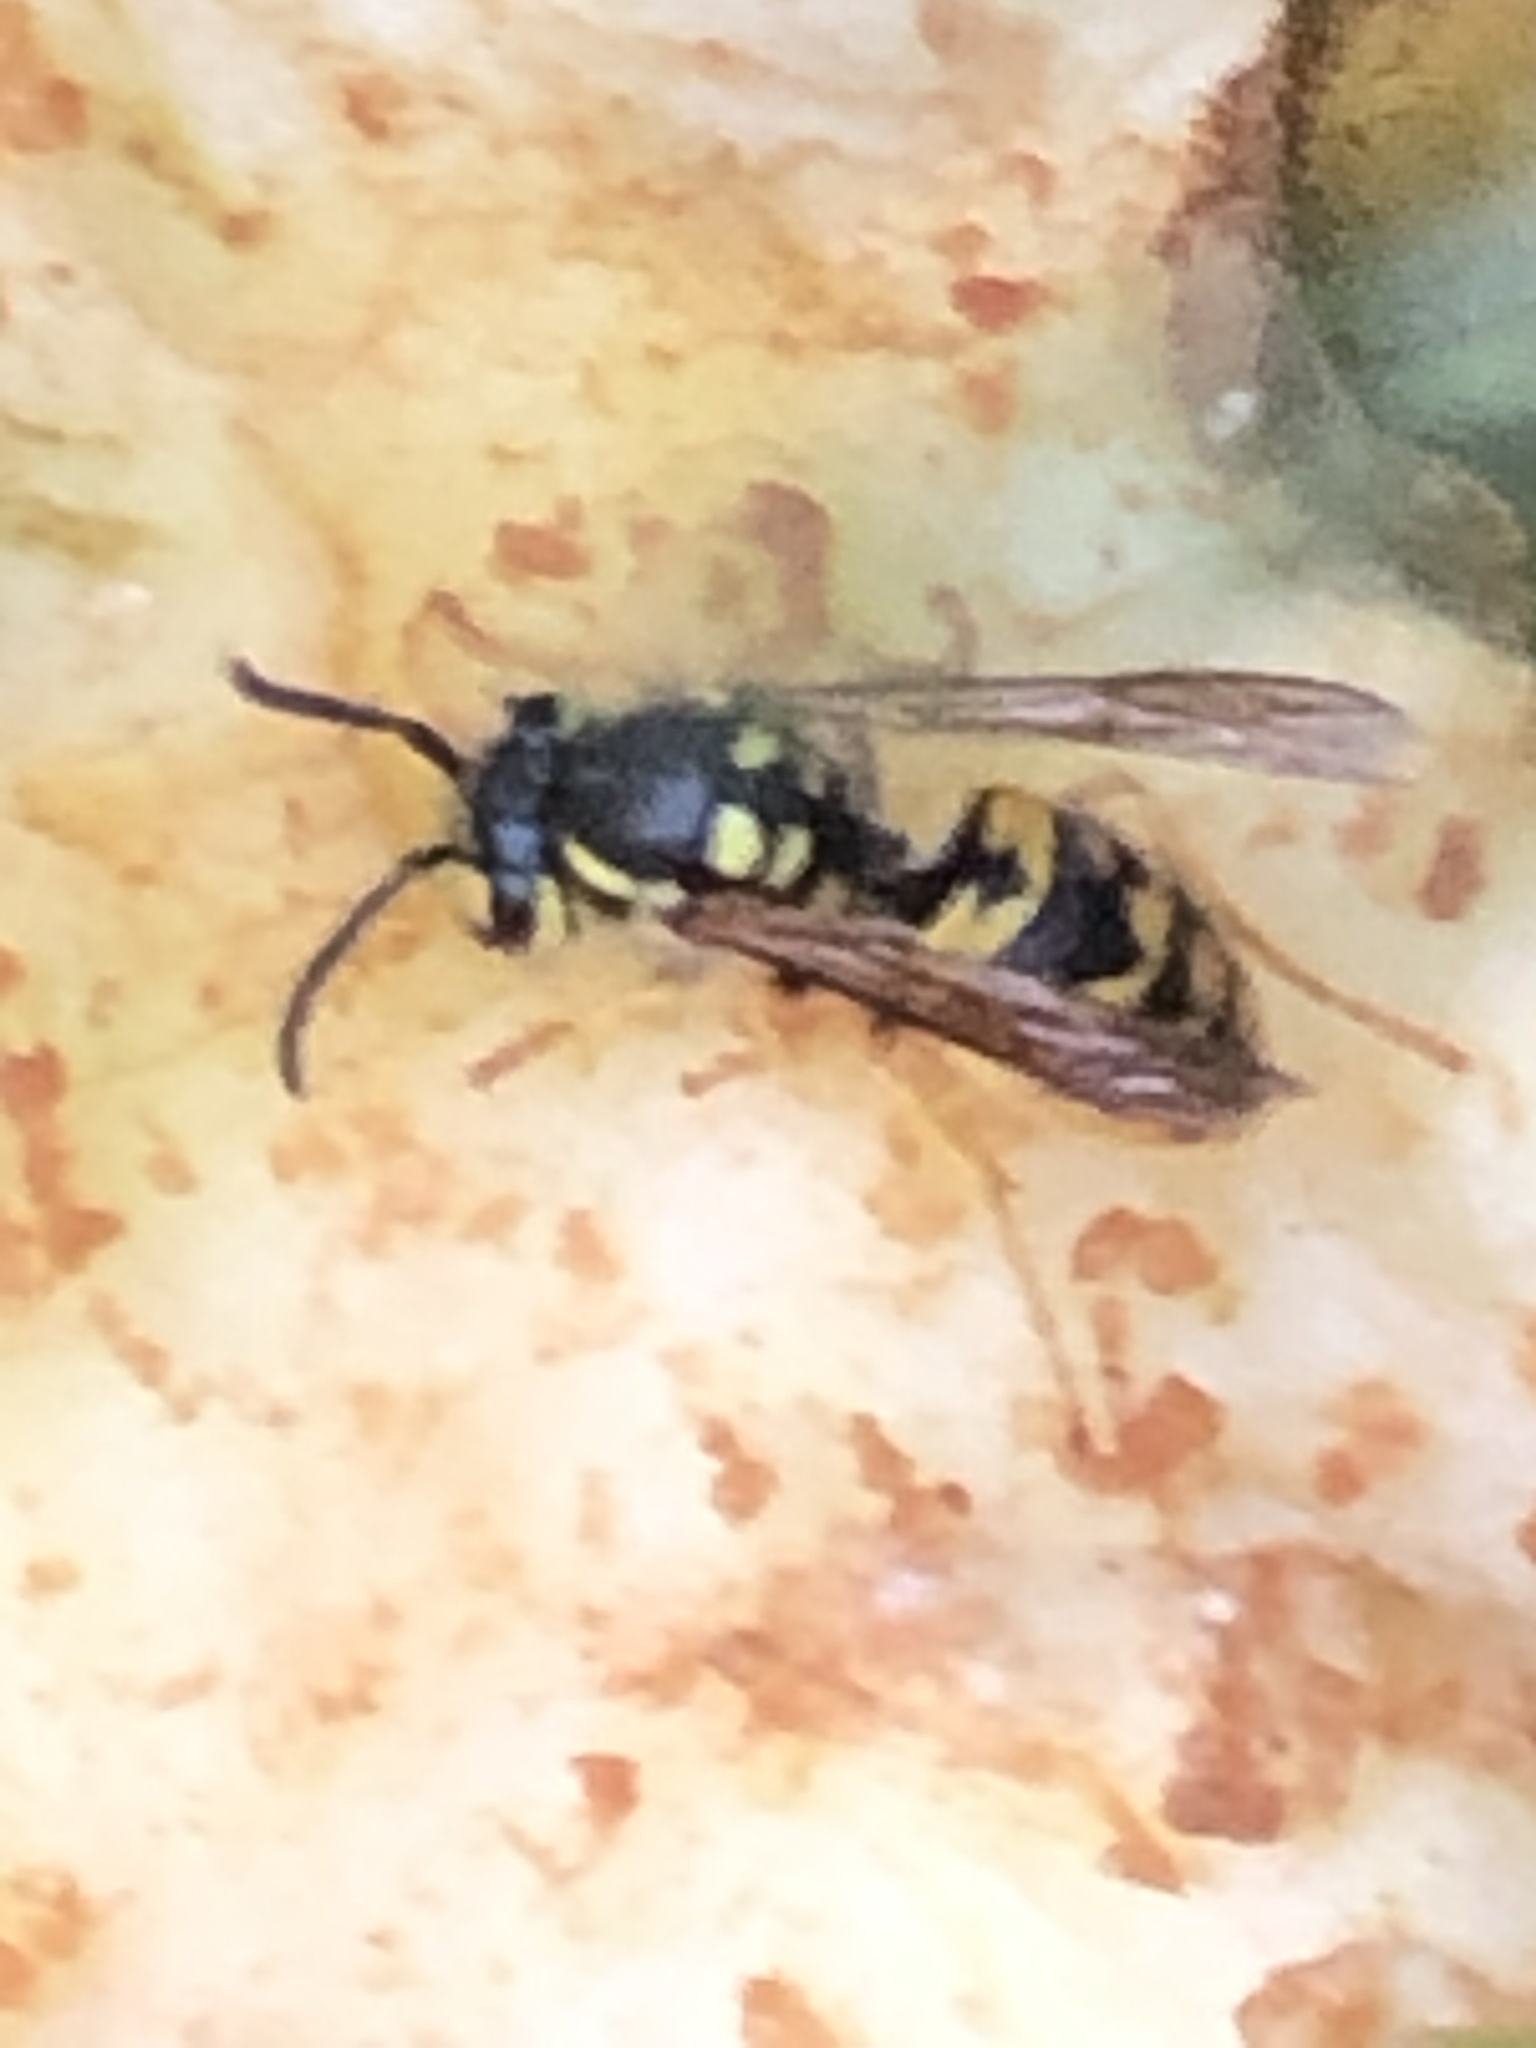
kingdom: Animalia
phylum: Arthropoda
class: Insecta
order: Hymenoptera
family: Vespidae
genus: Vespula
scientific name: Vespula germanica
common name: German wasp
